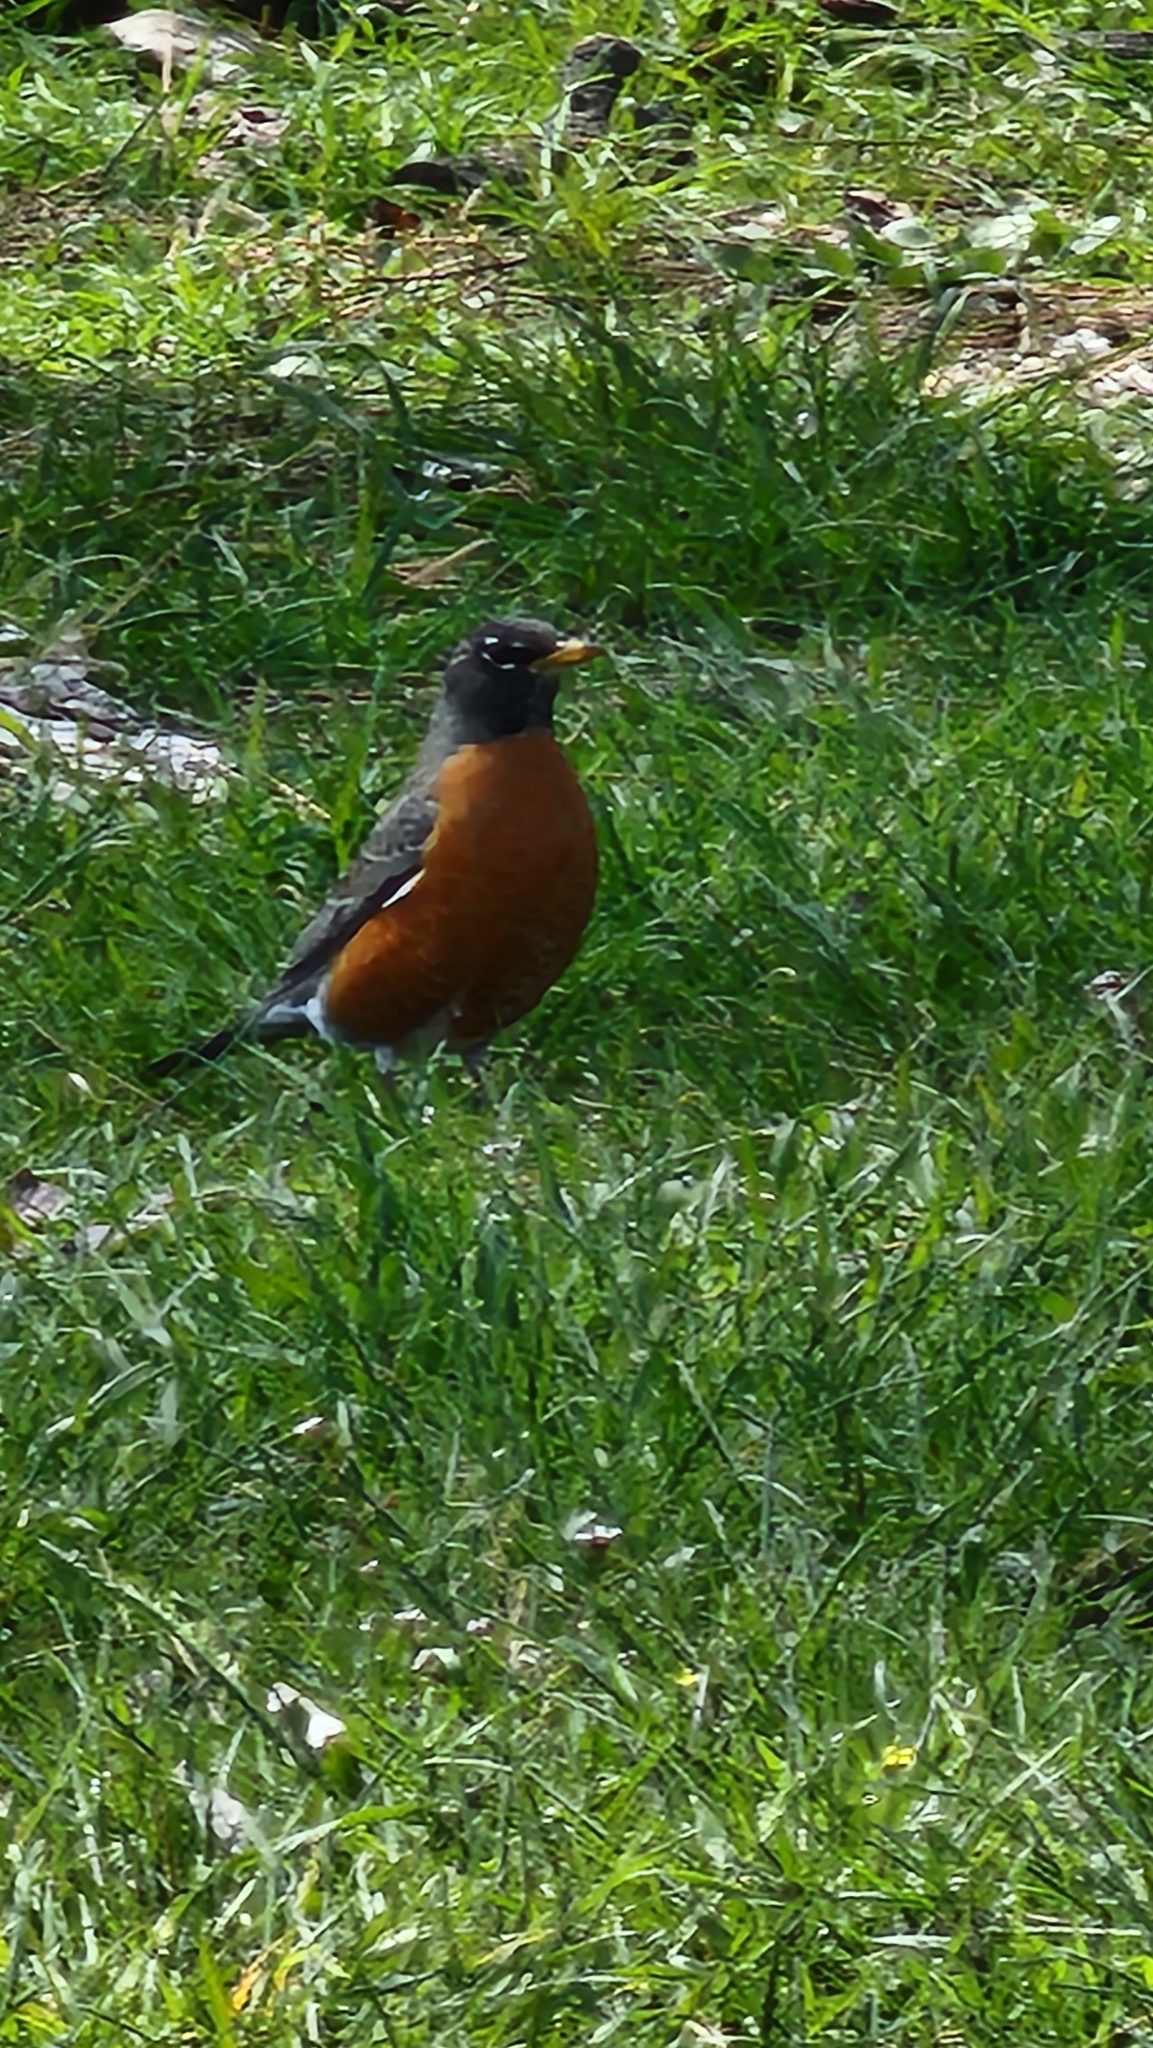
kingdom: Animalia
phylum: Chordata
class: Aves
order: Passeriformes
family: Turdidae
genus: Turdus
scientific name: Turdus migratorius
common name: American robin
